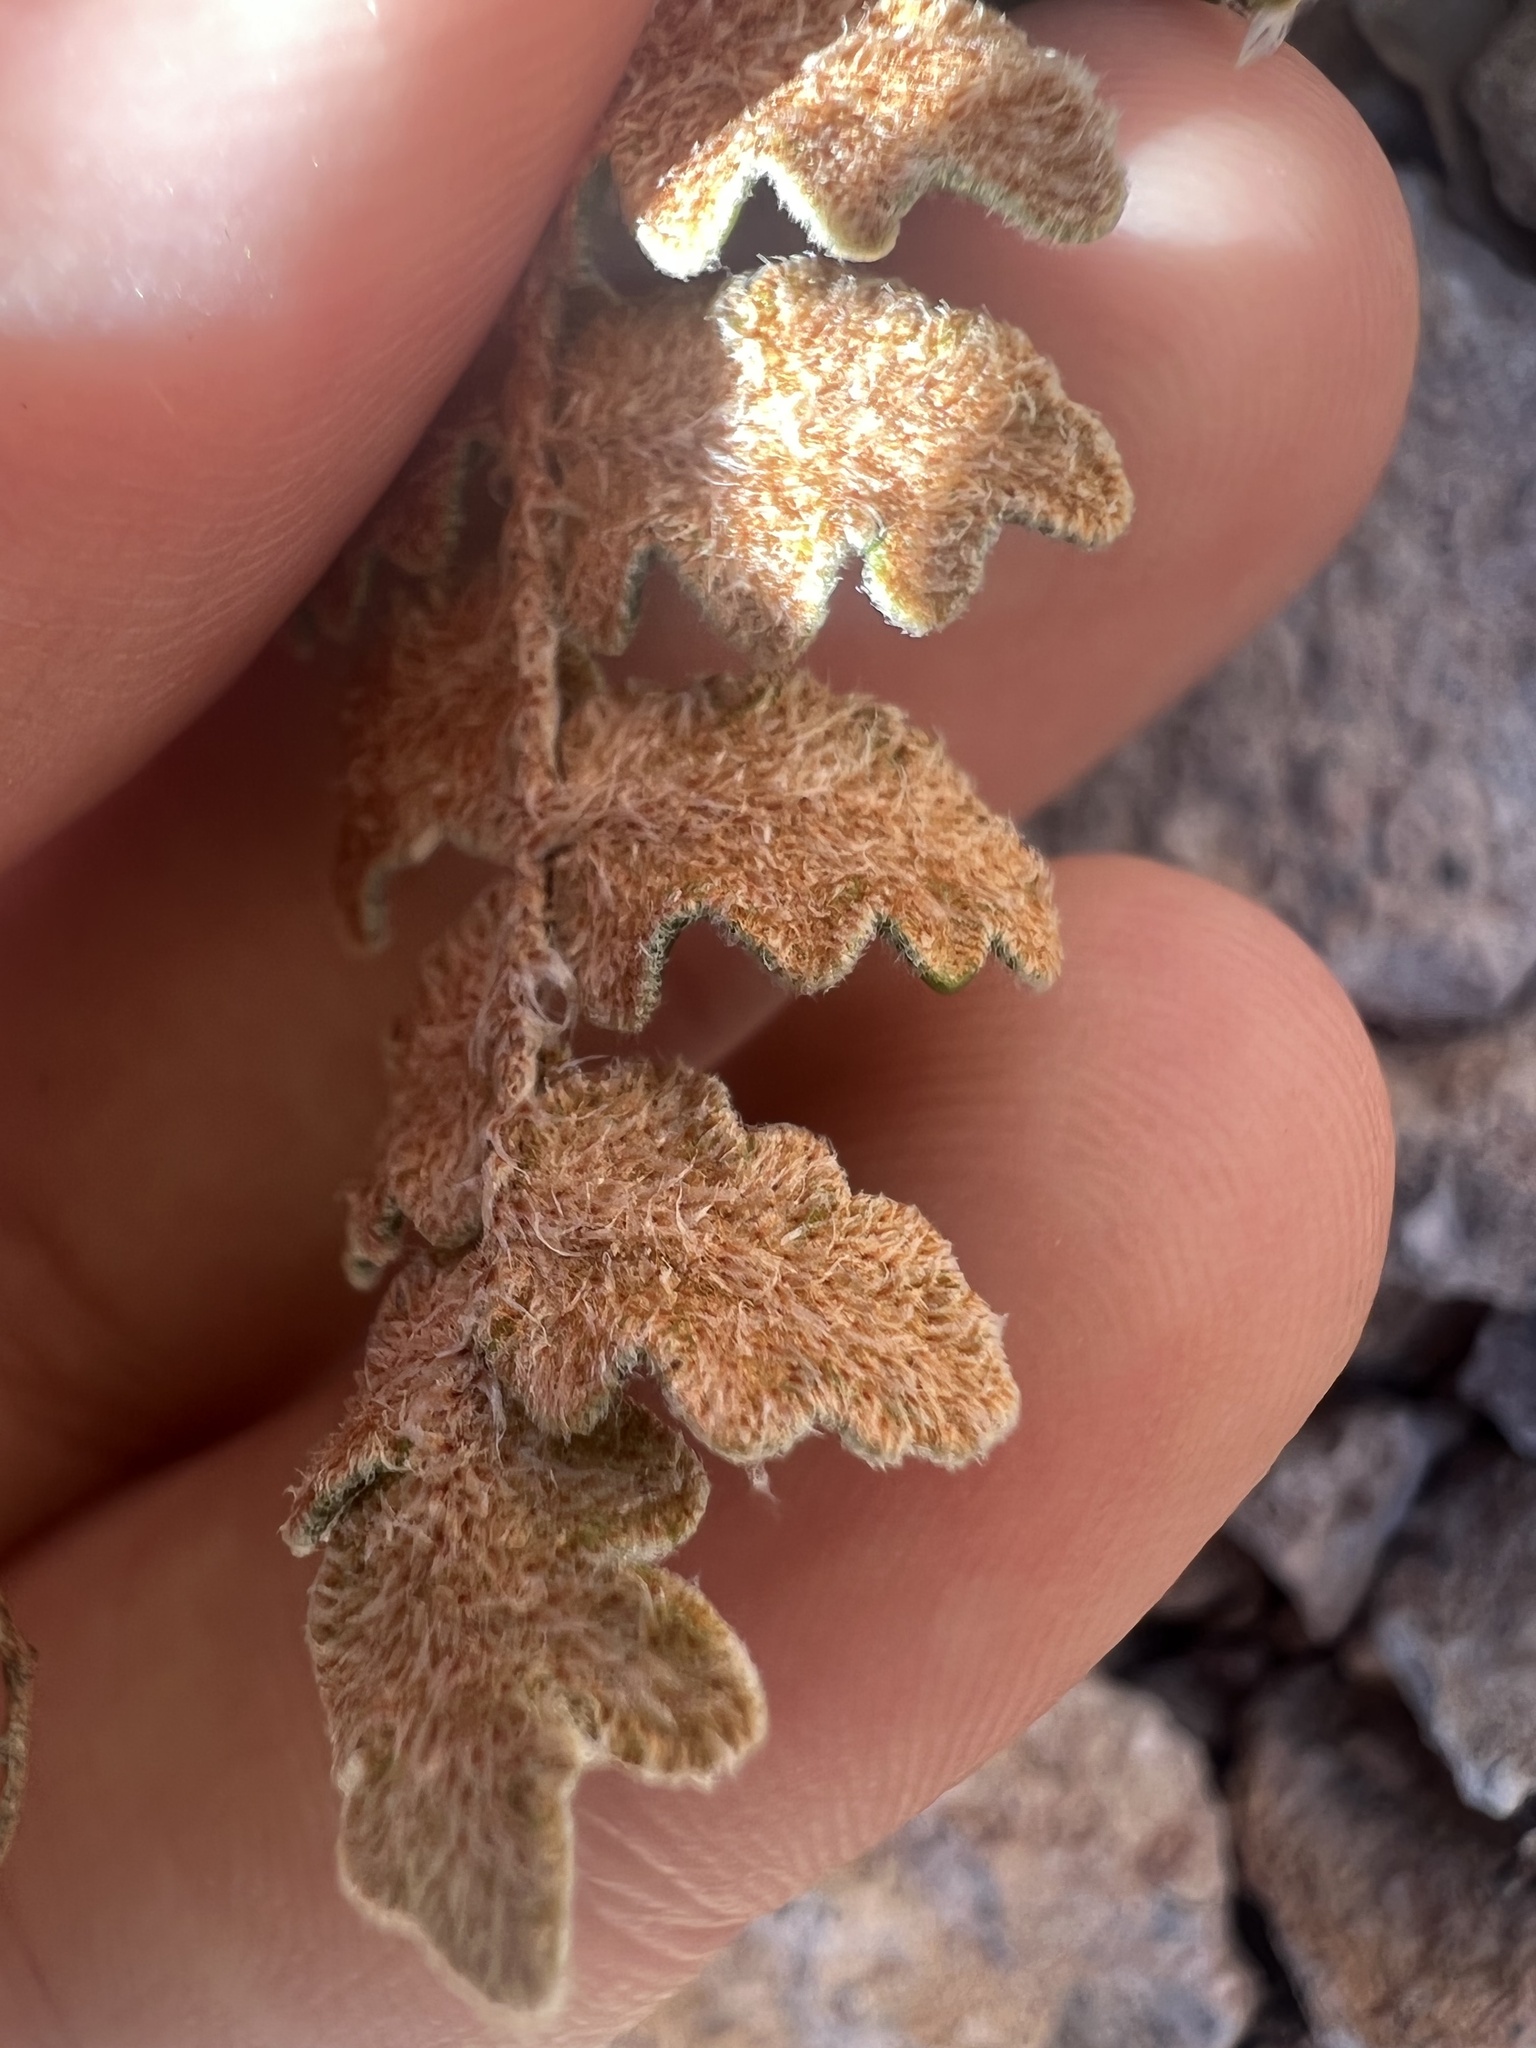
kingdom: Plantae
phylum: Tracheophyta
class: Polypodiopsida
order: Polypodiales
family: Pteridaceae
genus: Astrolepis
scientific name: Astrolepis sinuata
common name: Wavy scaly cloakfern
